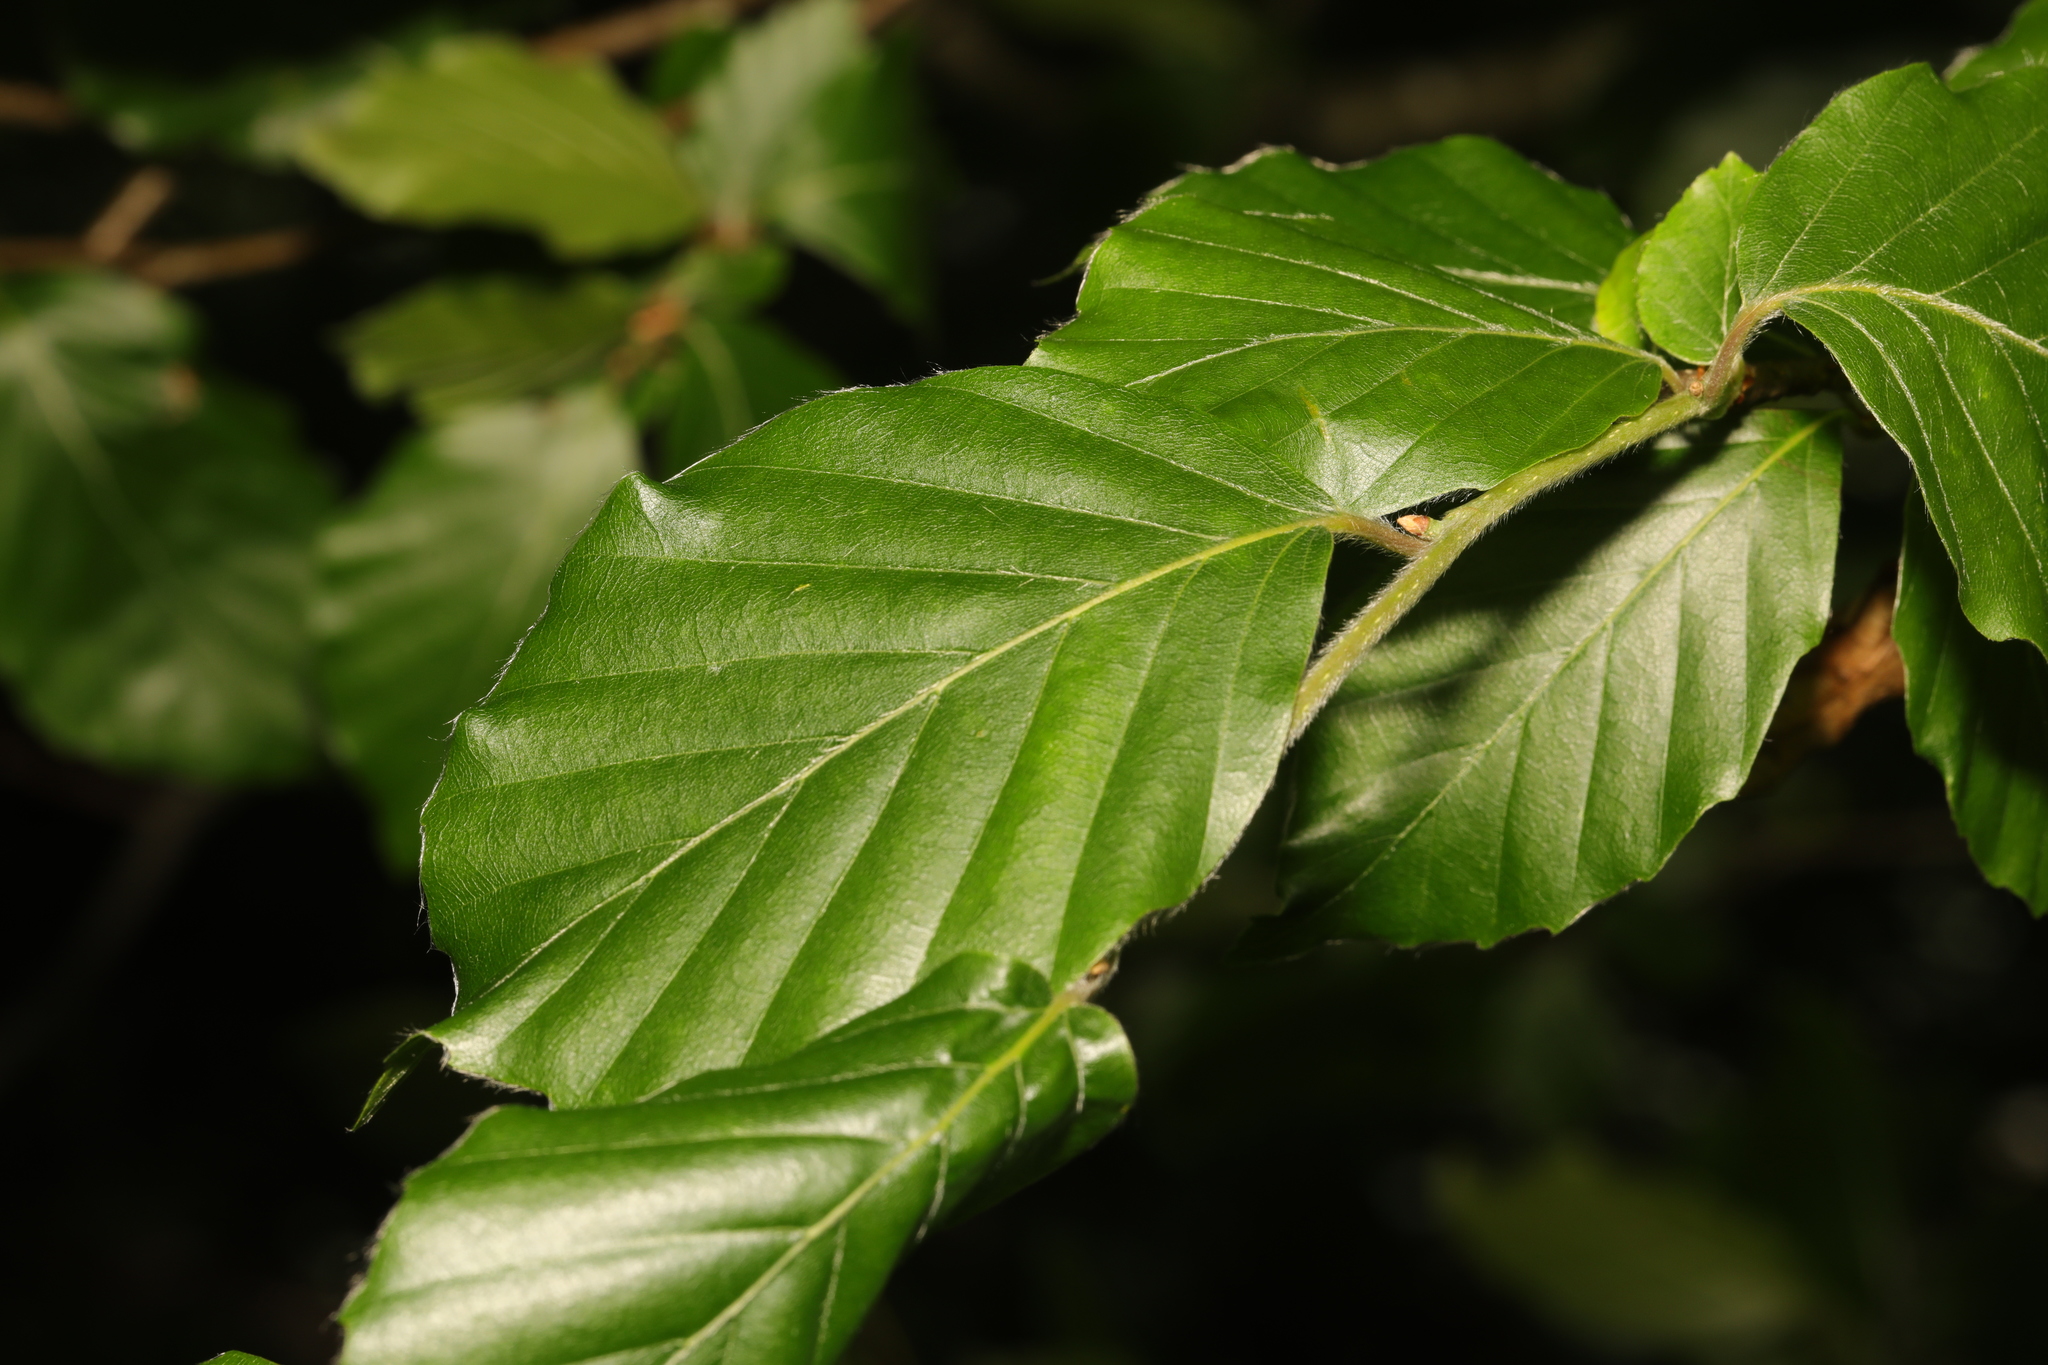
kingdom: Plantae
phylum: Tracheophyta
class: Magnoliopsida
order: Fagales
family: Fagaceae
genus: Fagus
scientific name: Fagus sylvatica
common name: Beech
